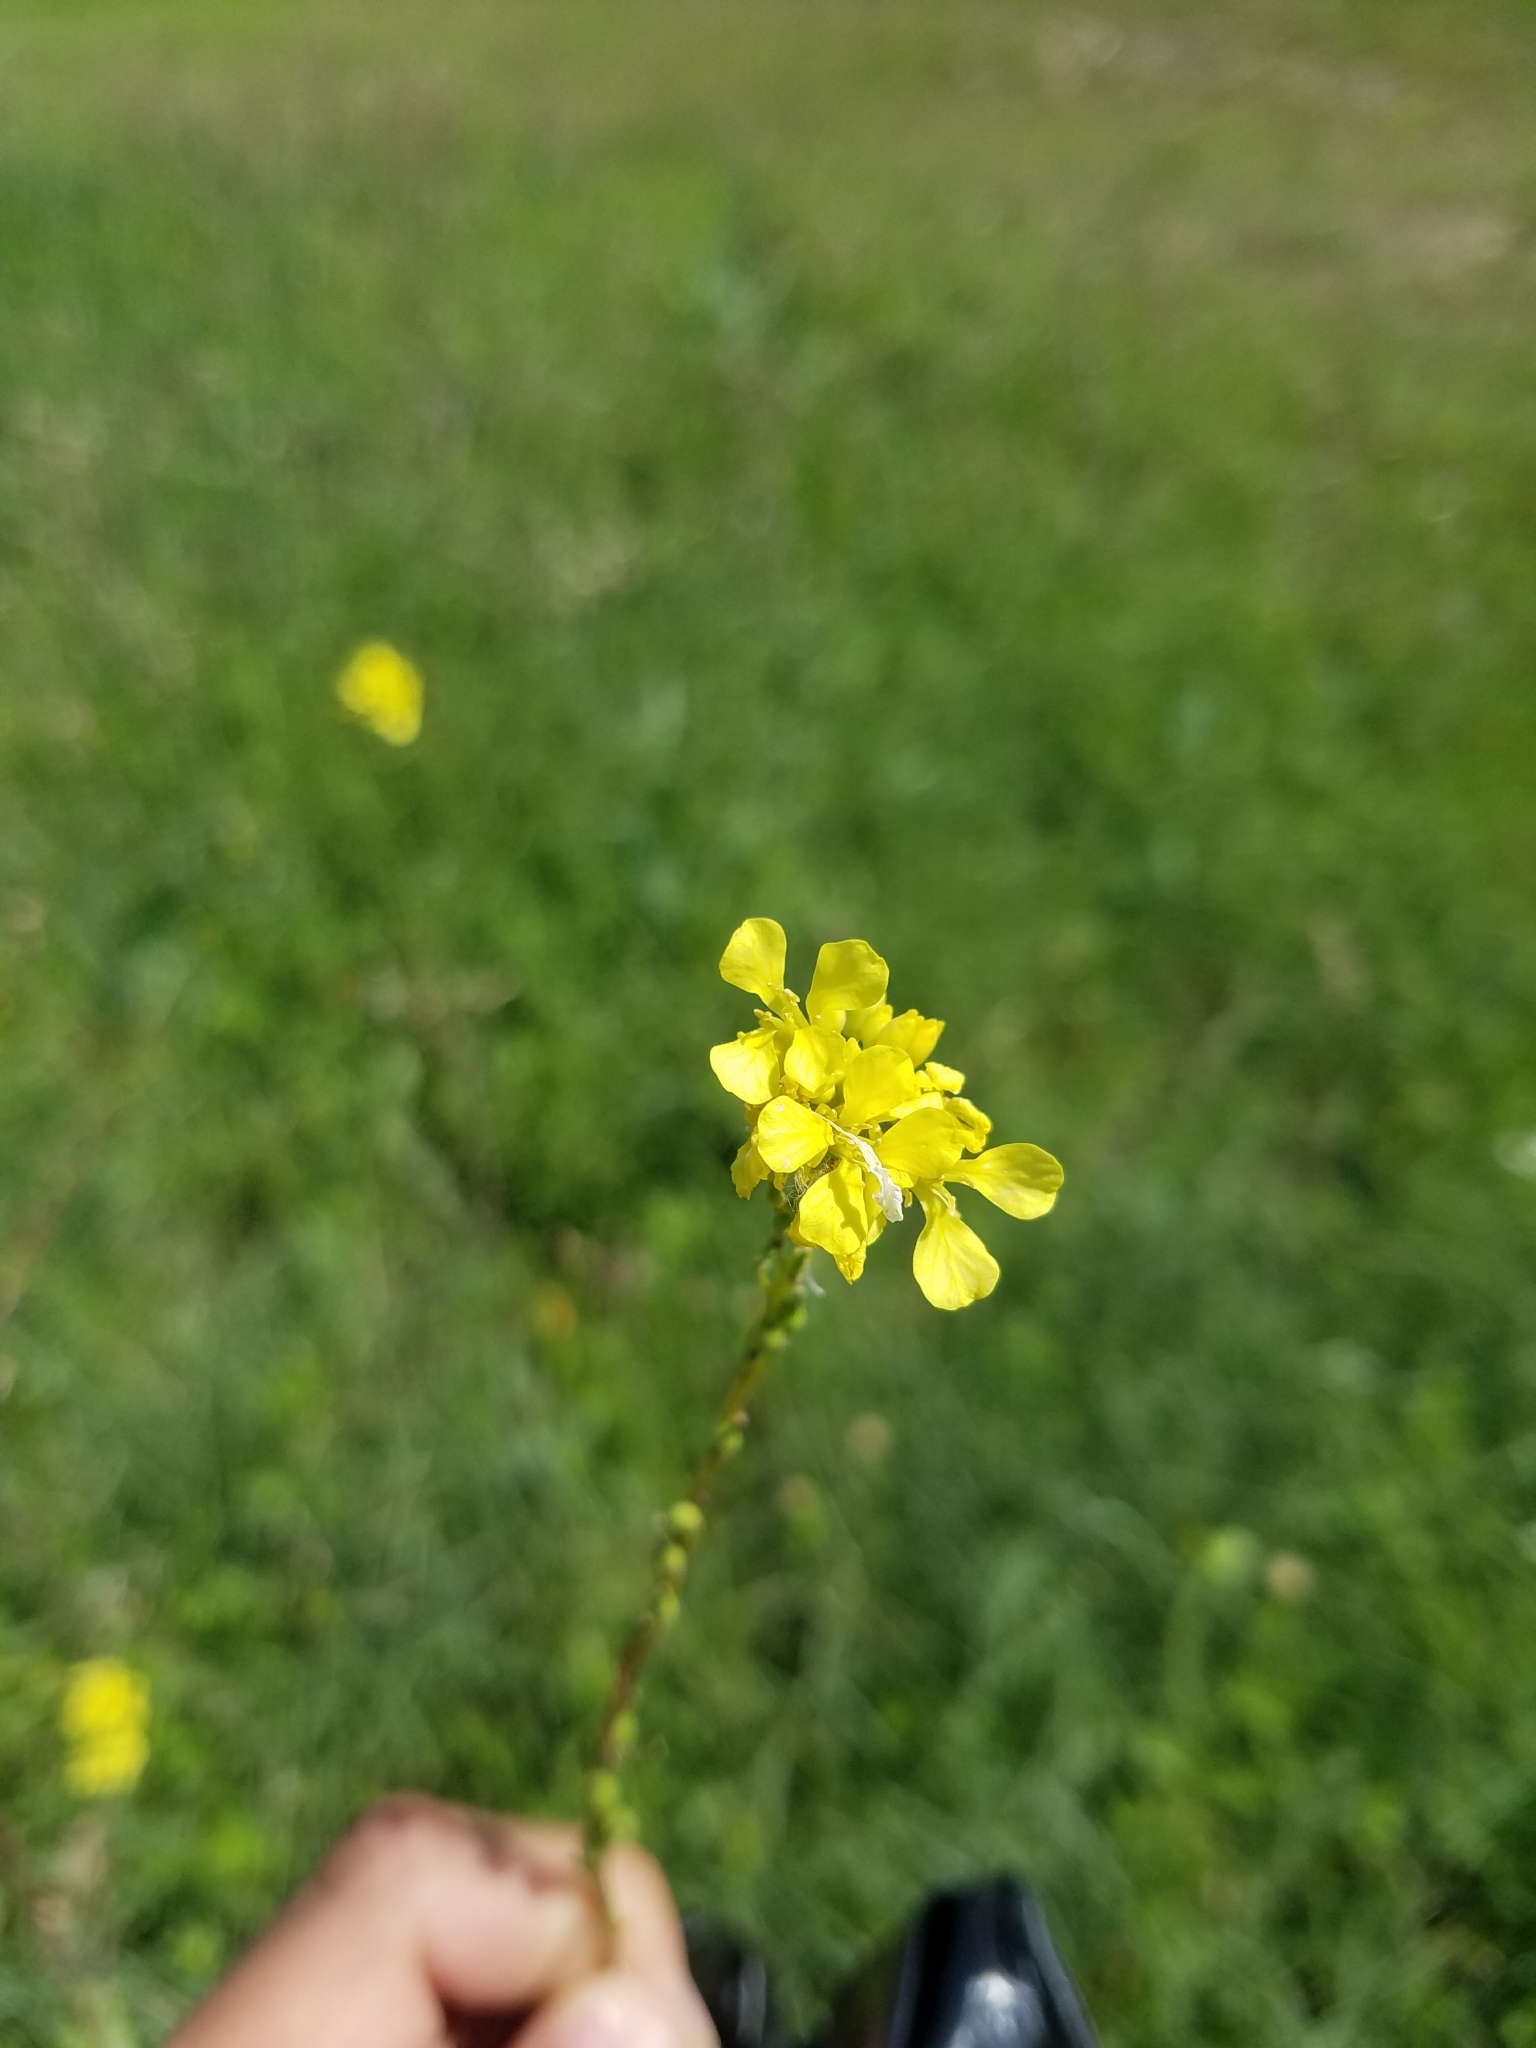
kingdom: Plantae
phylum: Tracheophyta
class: Magnoliopsida
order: Brassicales
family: Brassicaceae
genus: Rapistrum
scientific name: Rapistrum rugosum
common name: Annual bastardcabbage
